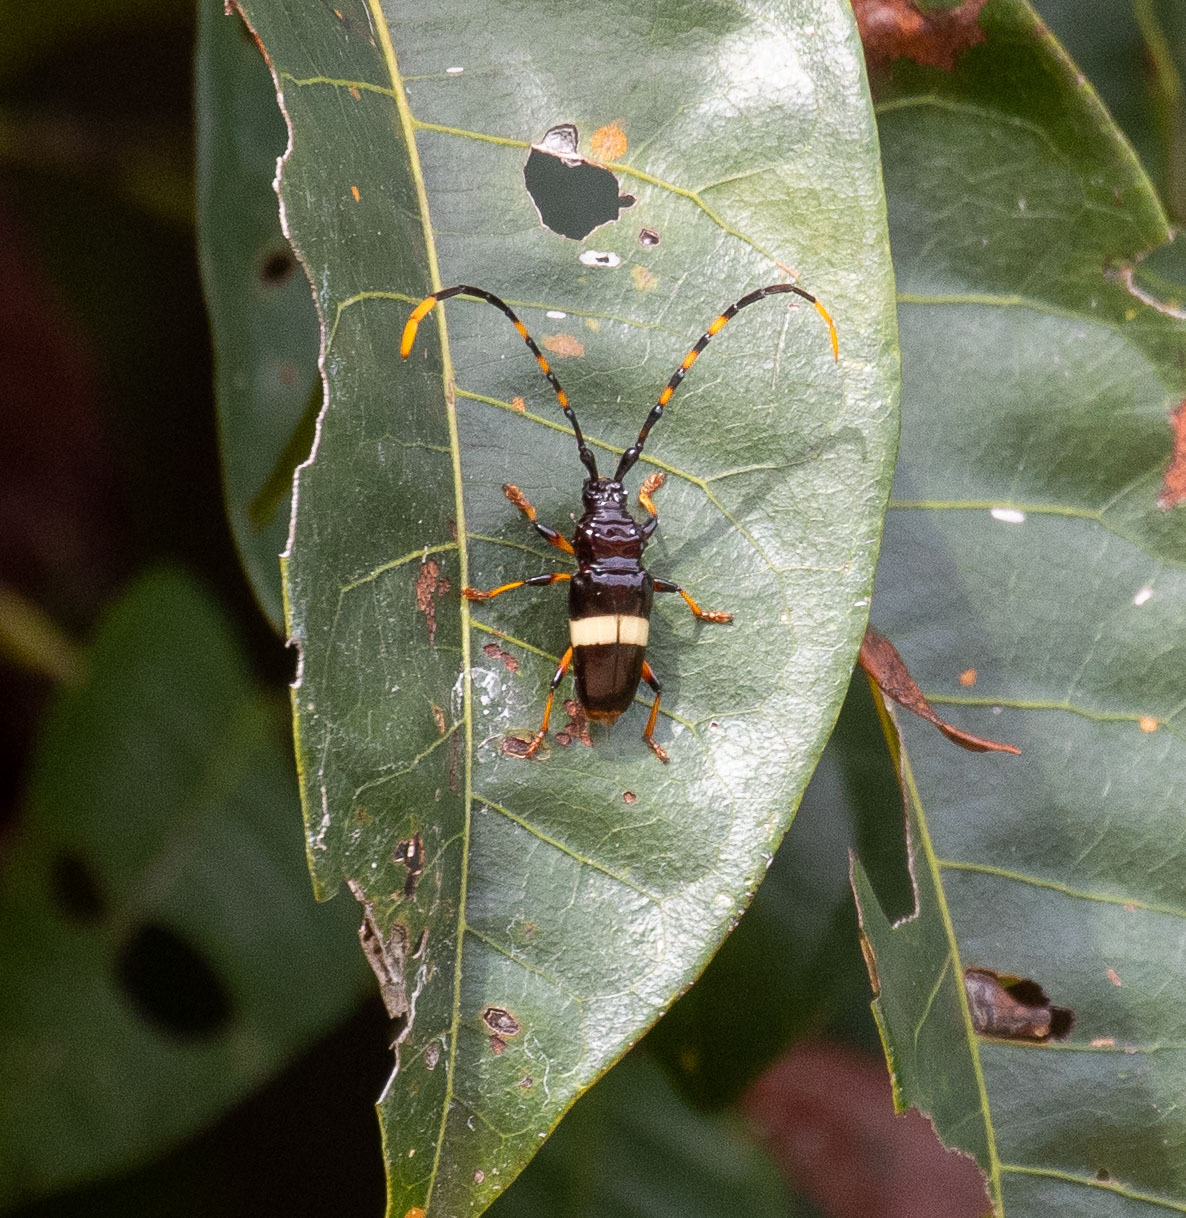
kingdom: Animalia
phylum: Arthropoda
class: Insecta
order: Coleoptera
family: Cerambycidae
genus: Trachyderes
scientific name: Trachyderes succinctus
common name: Mango longhorn
